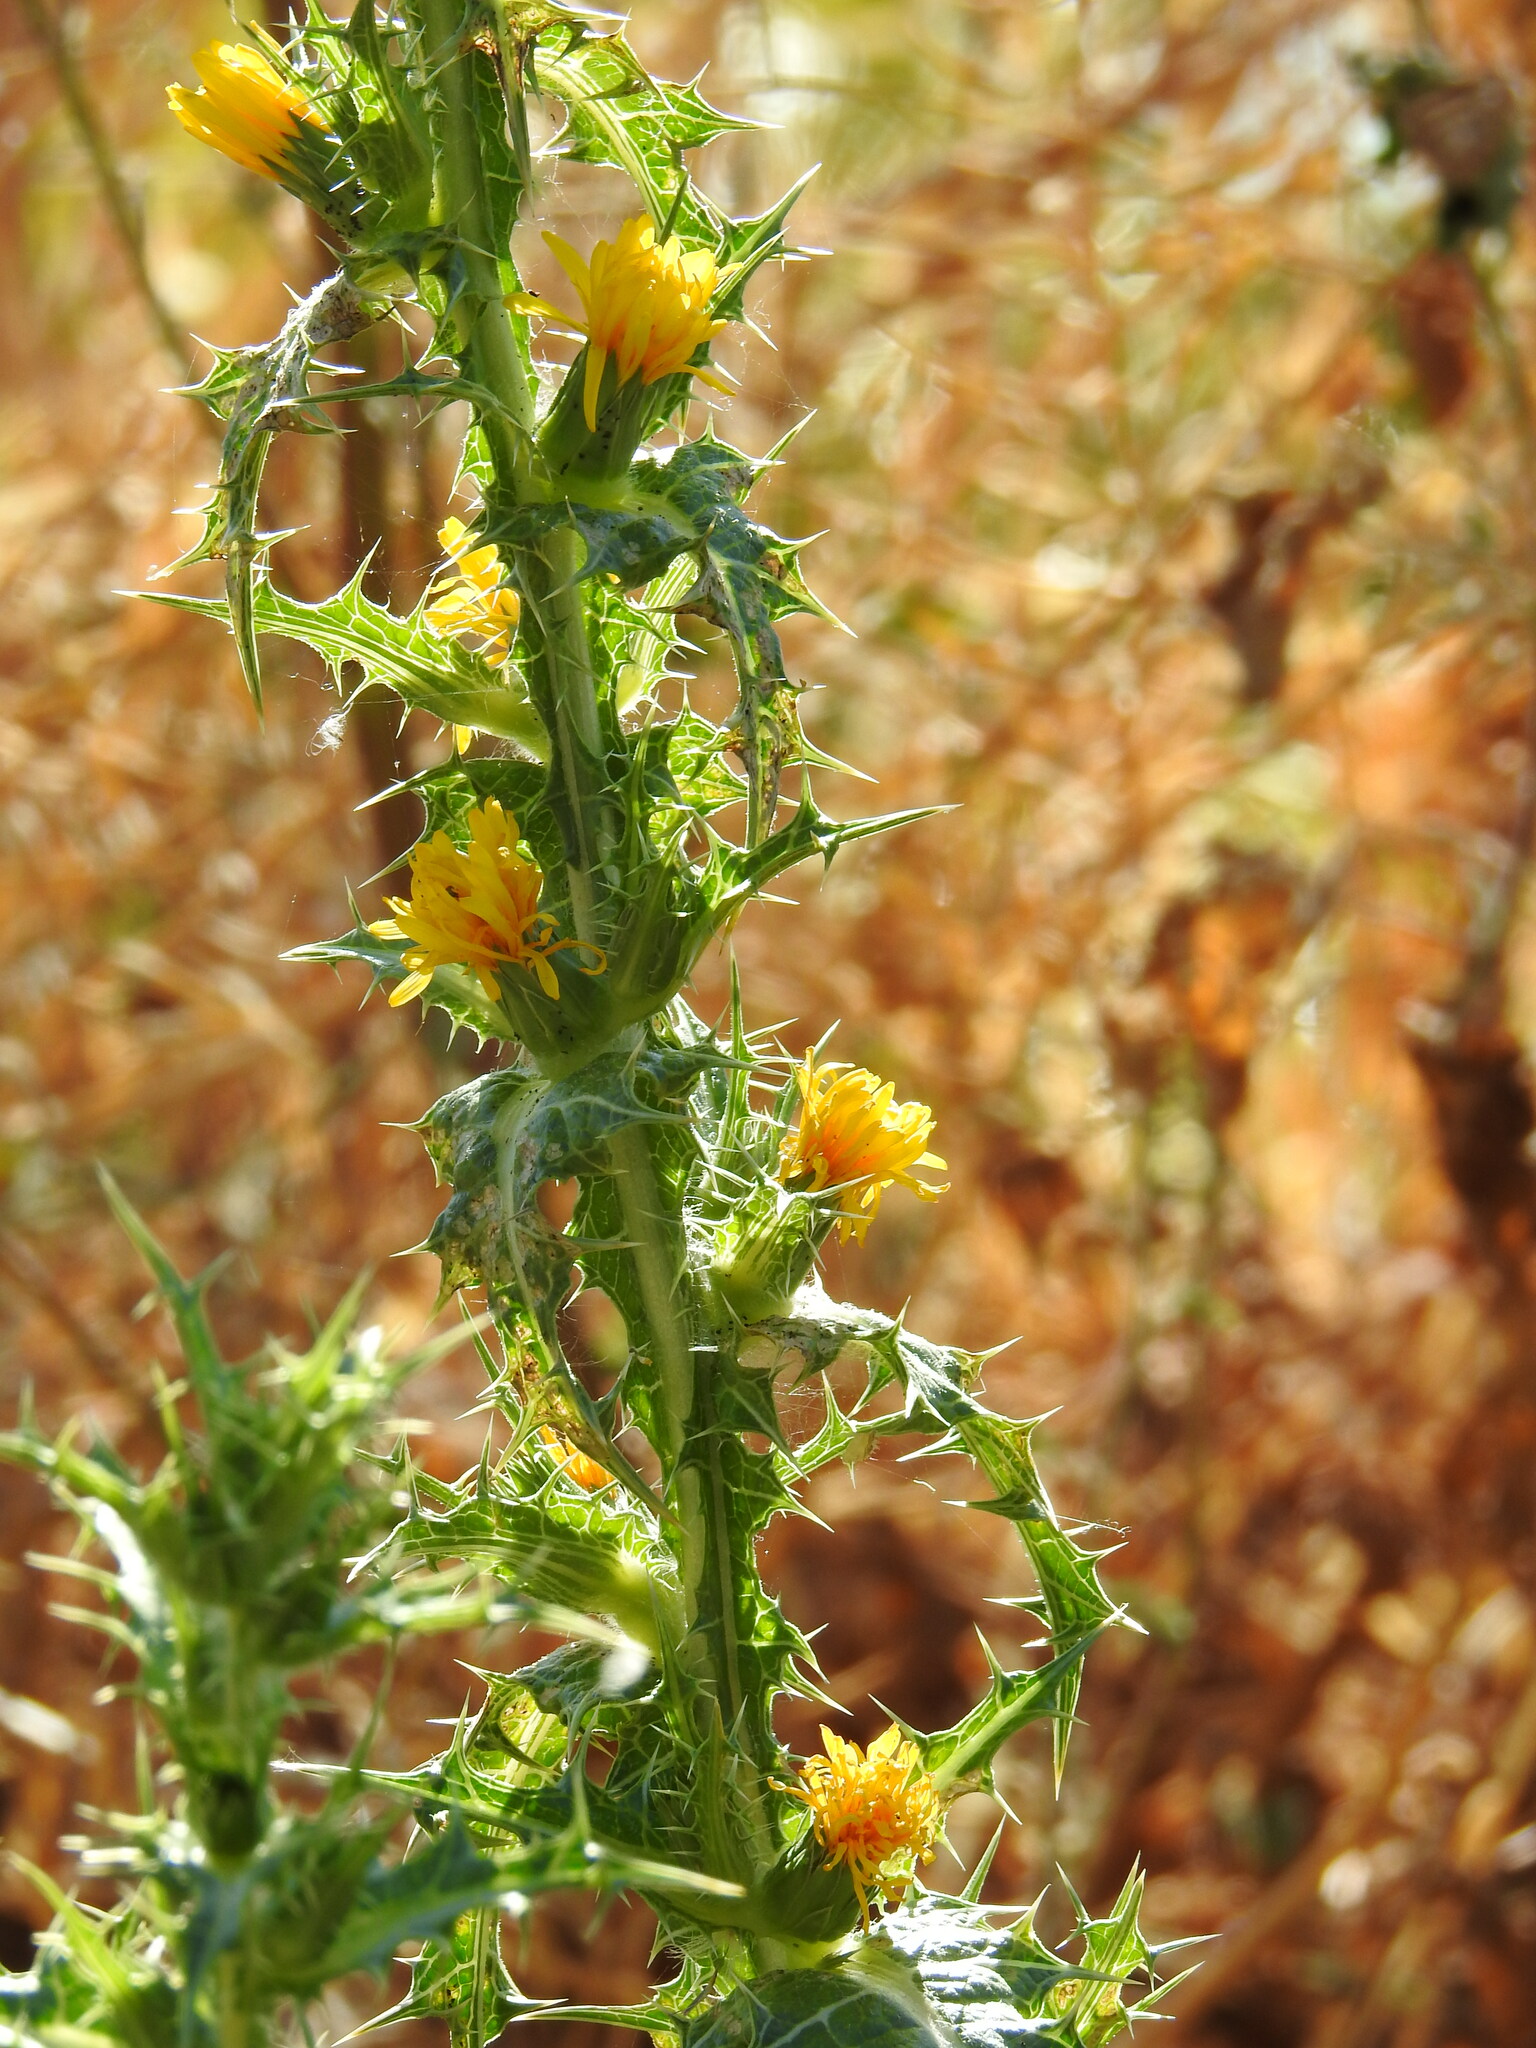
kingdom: Plantae
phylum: Tracheophyta
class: Magnoliopsida
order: Asterales
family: Asteraceae
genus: Scolymus
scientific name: Scolymus hispanicus
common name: Golden thistle
